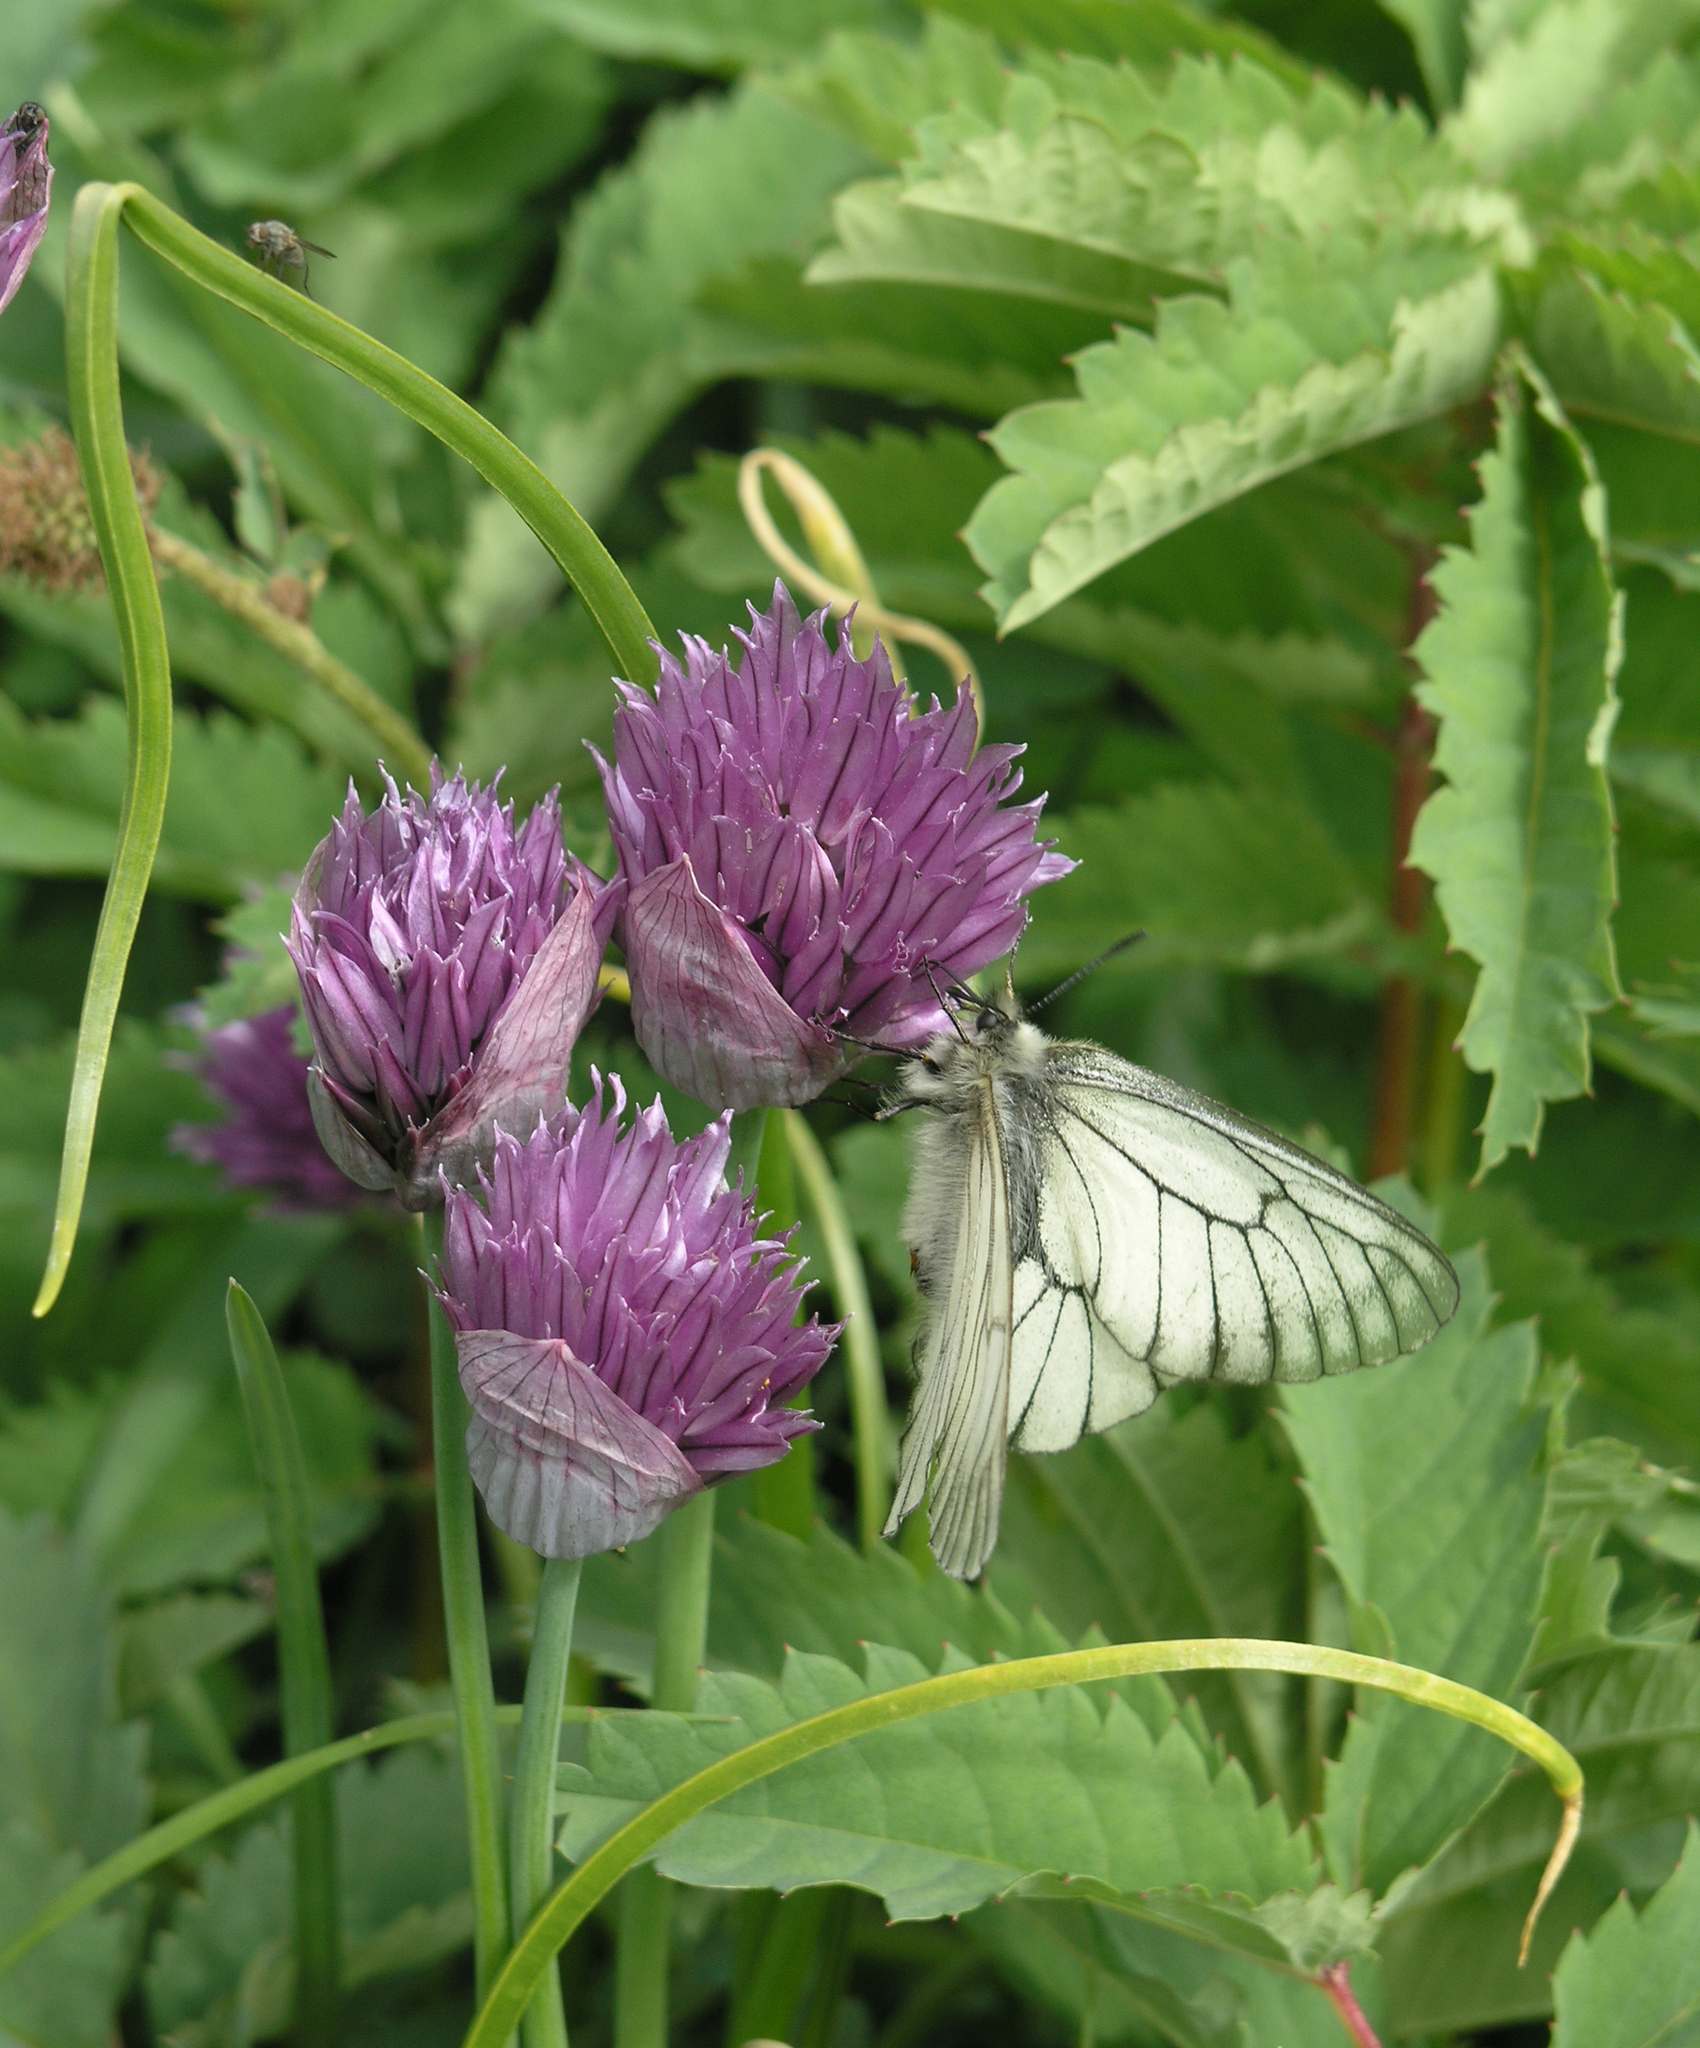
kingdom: Plantae
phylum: Tracheophyta
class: Liliopsida
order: Asparagales
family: Amaryllidaceae
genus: Allium
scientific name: Allium schoenoprasum
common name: Chives
